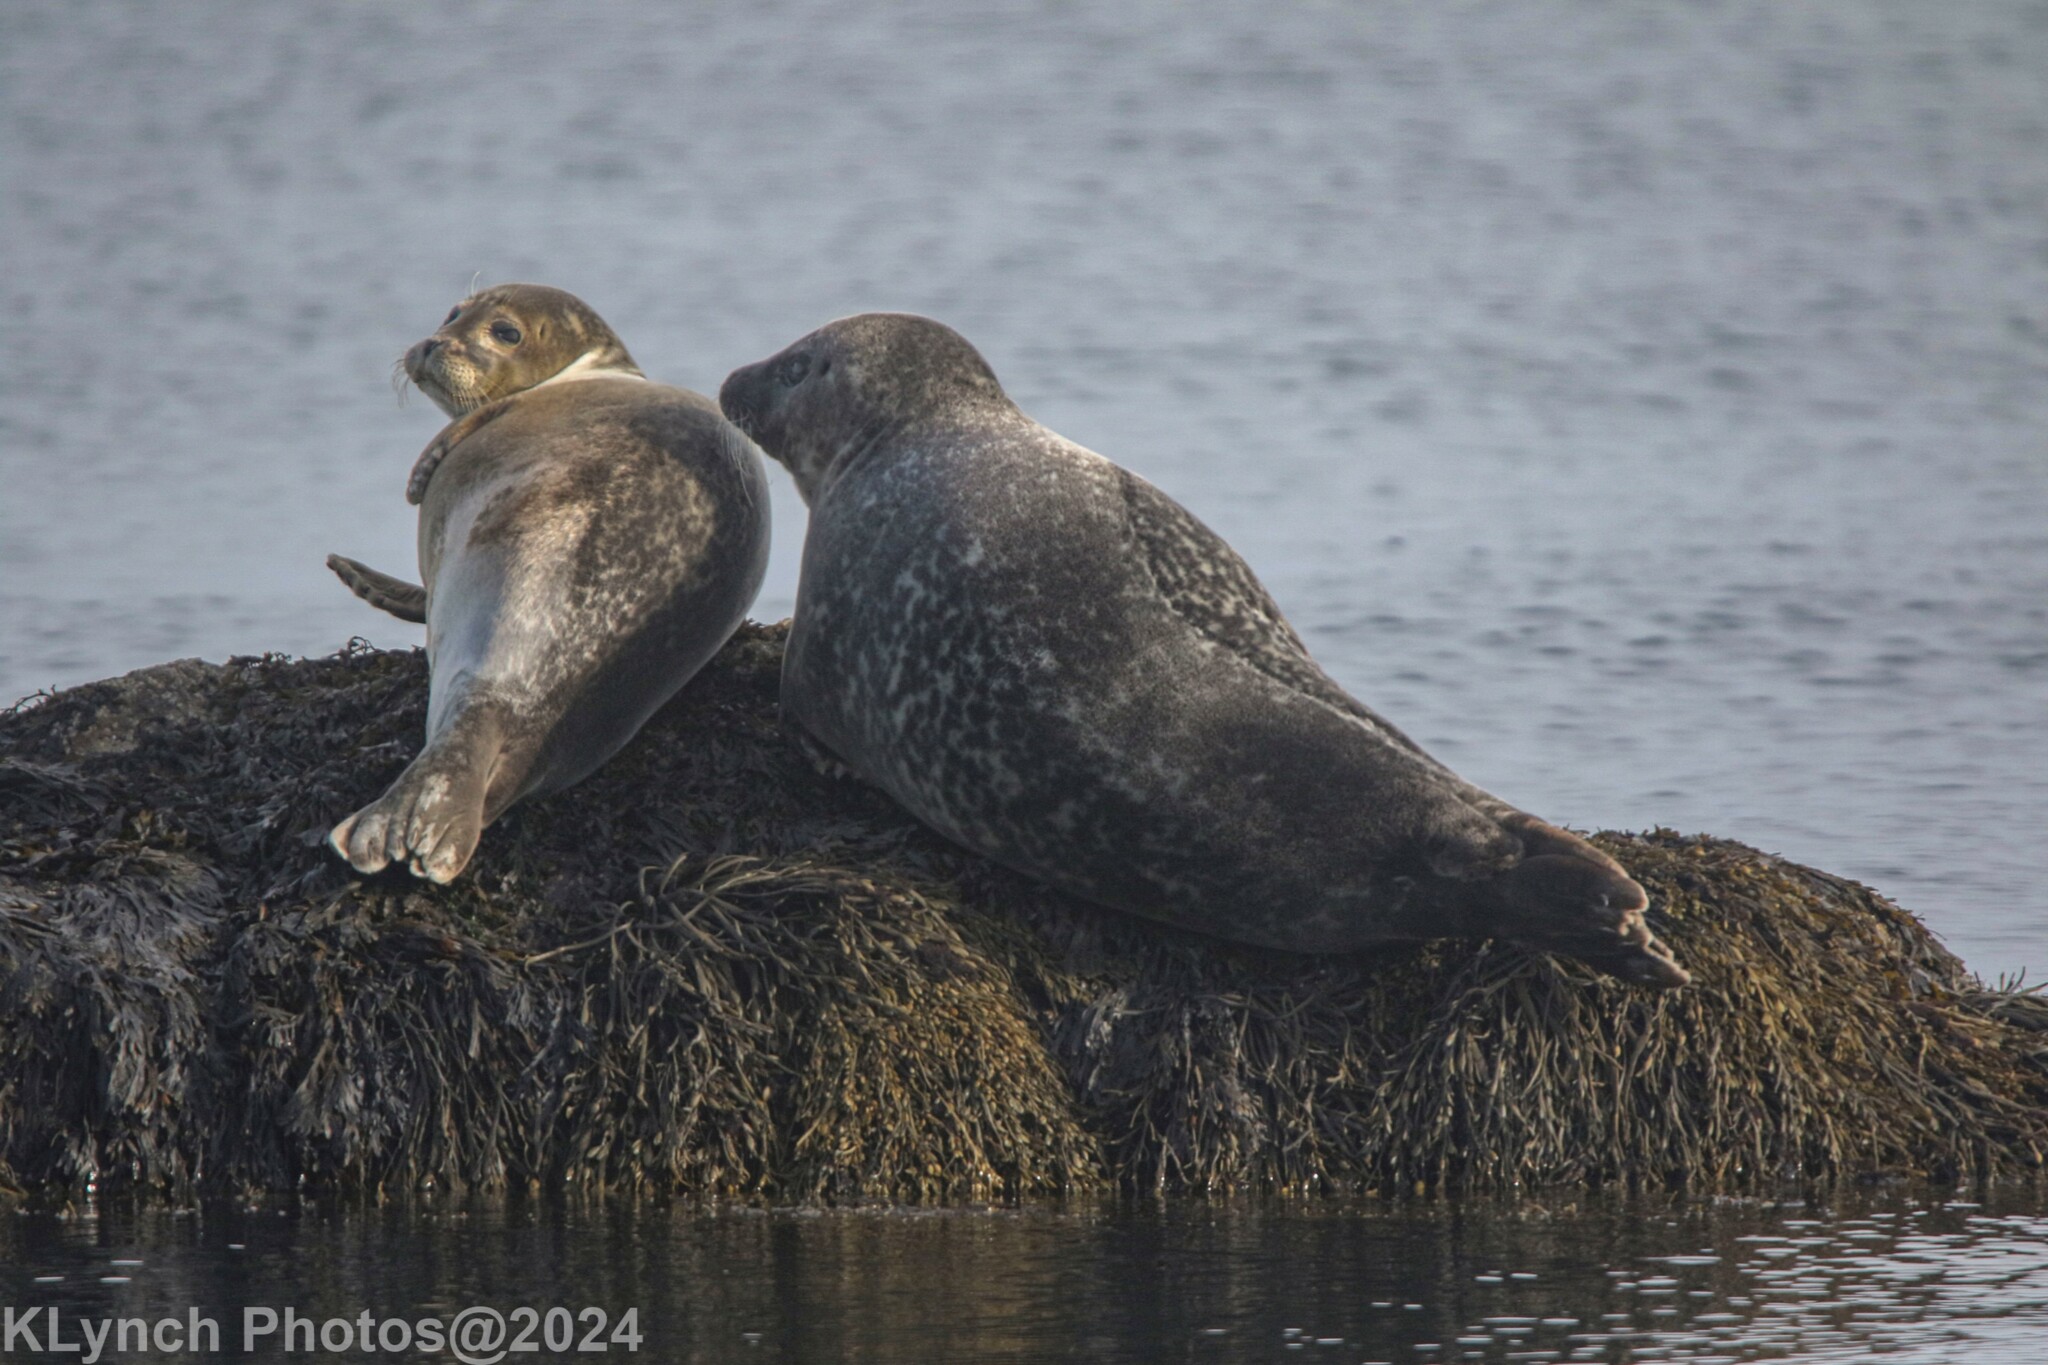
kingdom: Animalia
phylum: Chordata
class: Mammalia
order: Carnivora
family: Phocidae
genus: Phoca
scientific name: Phoca vitulina
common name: Harbor seal
